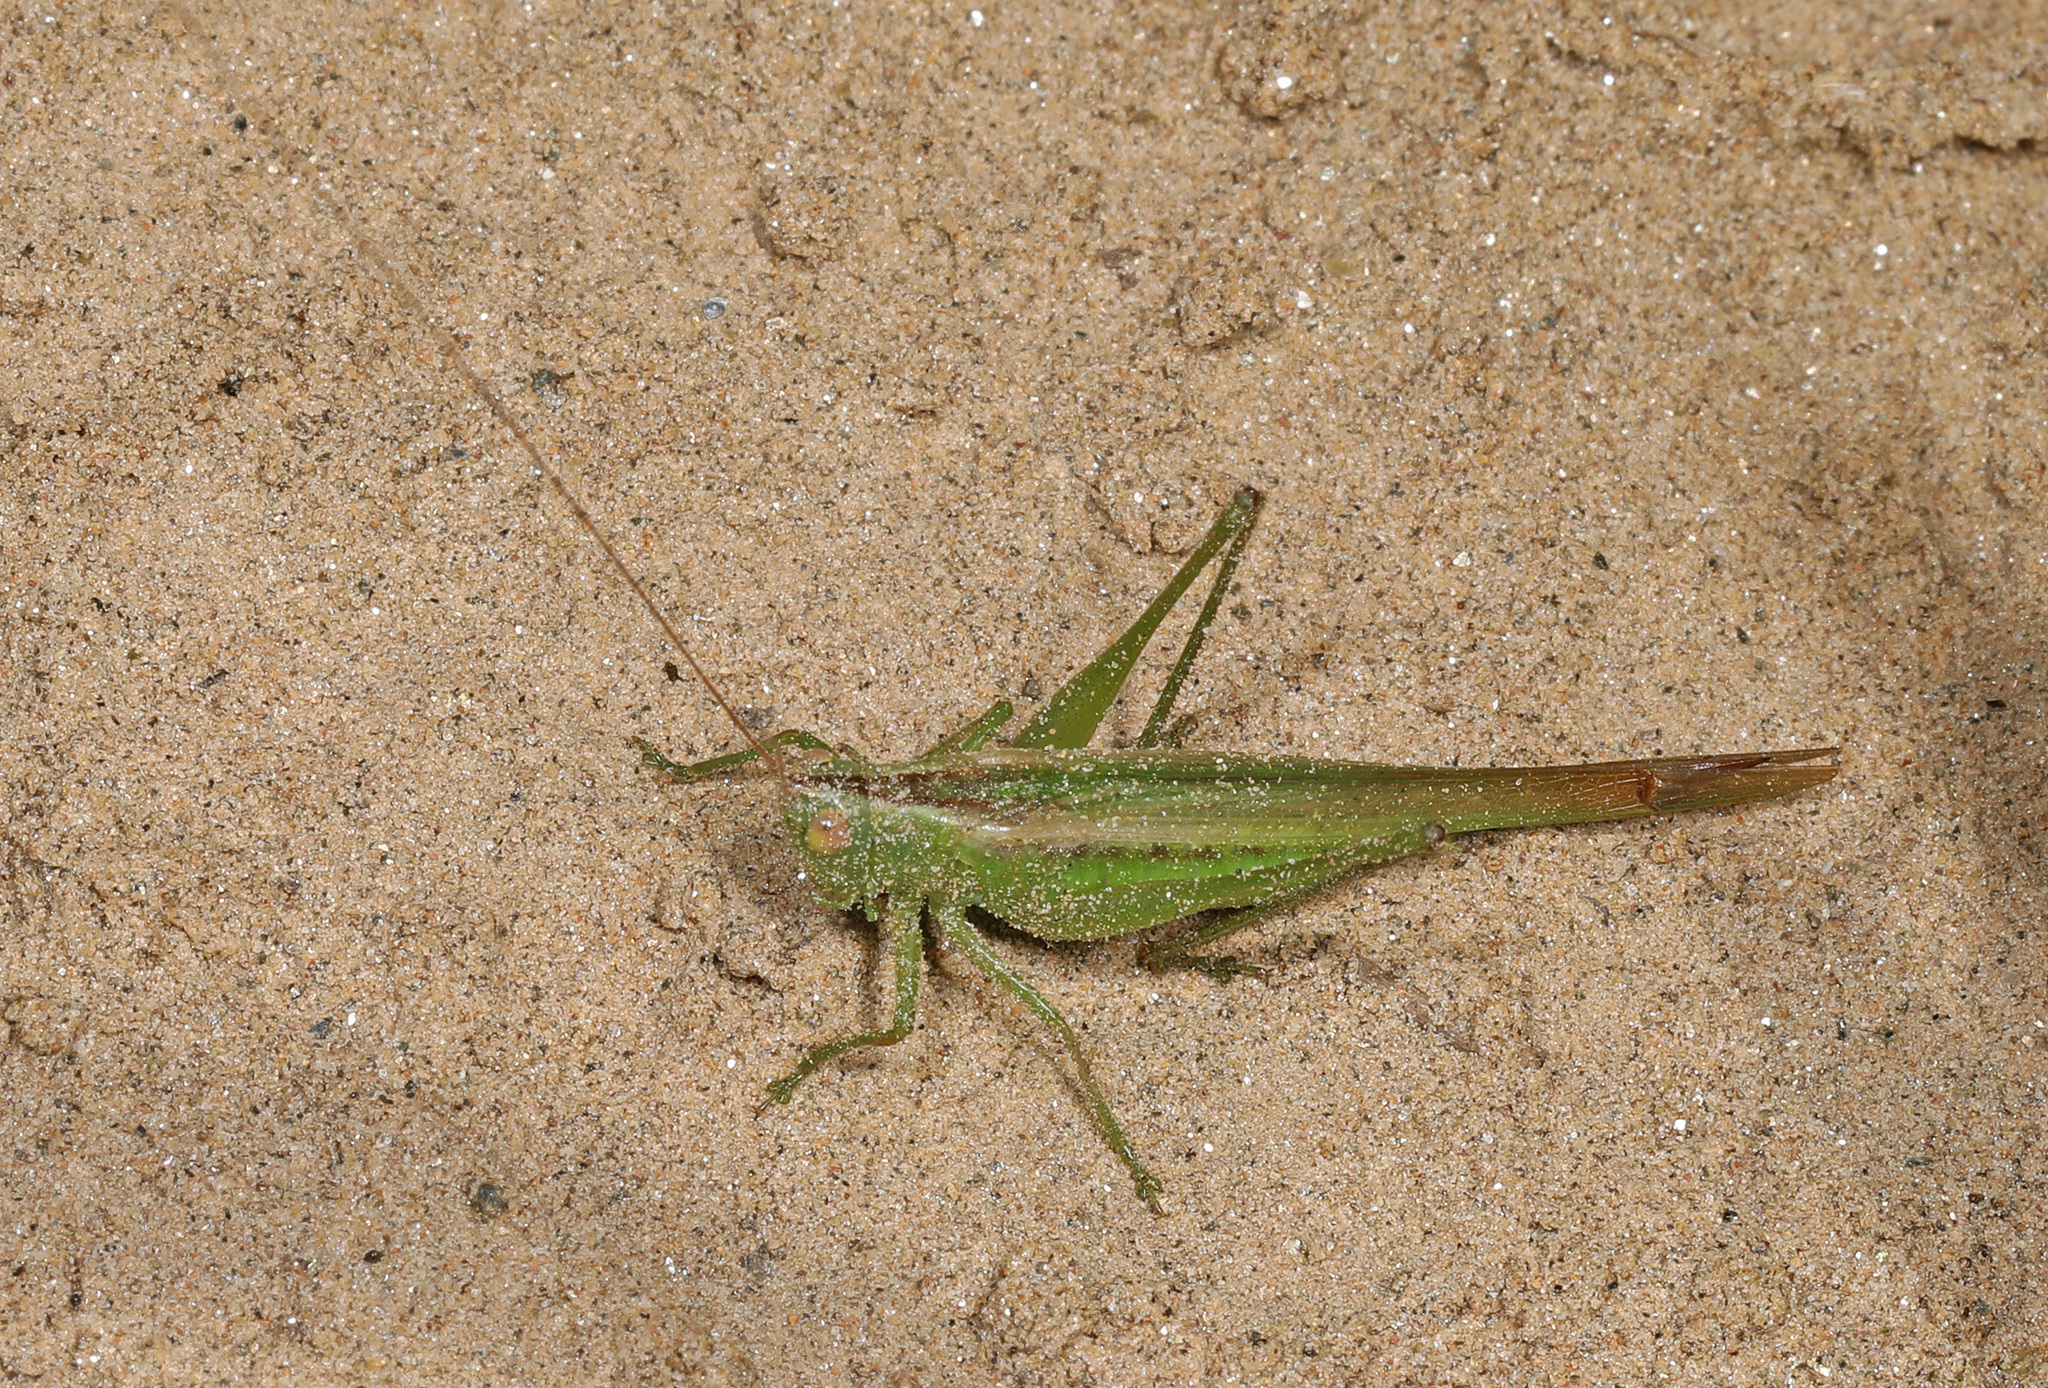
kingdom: Animalia
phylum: Arthropoda
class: Insecta
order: Orthoptera
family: Tettigoniidae
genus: Conocephalus
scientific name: Conocephalus fasciatus
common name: Slender meadow katydid
